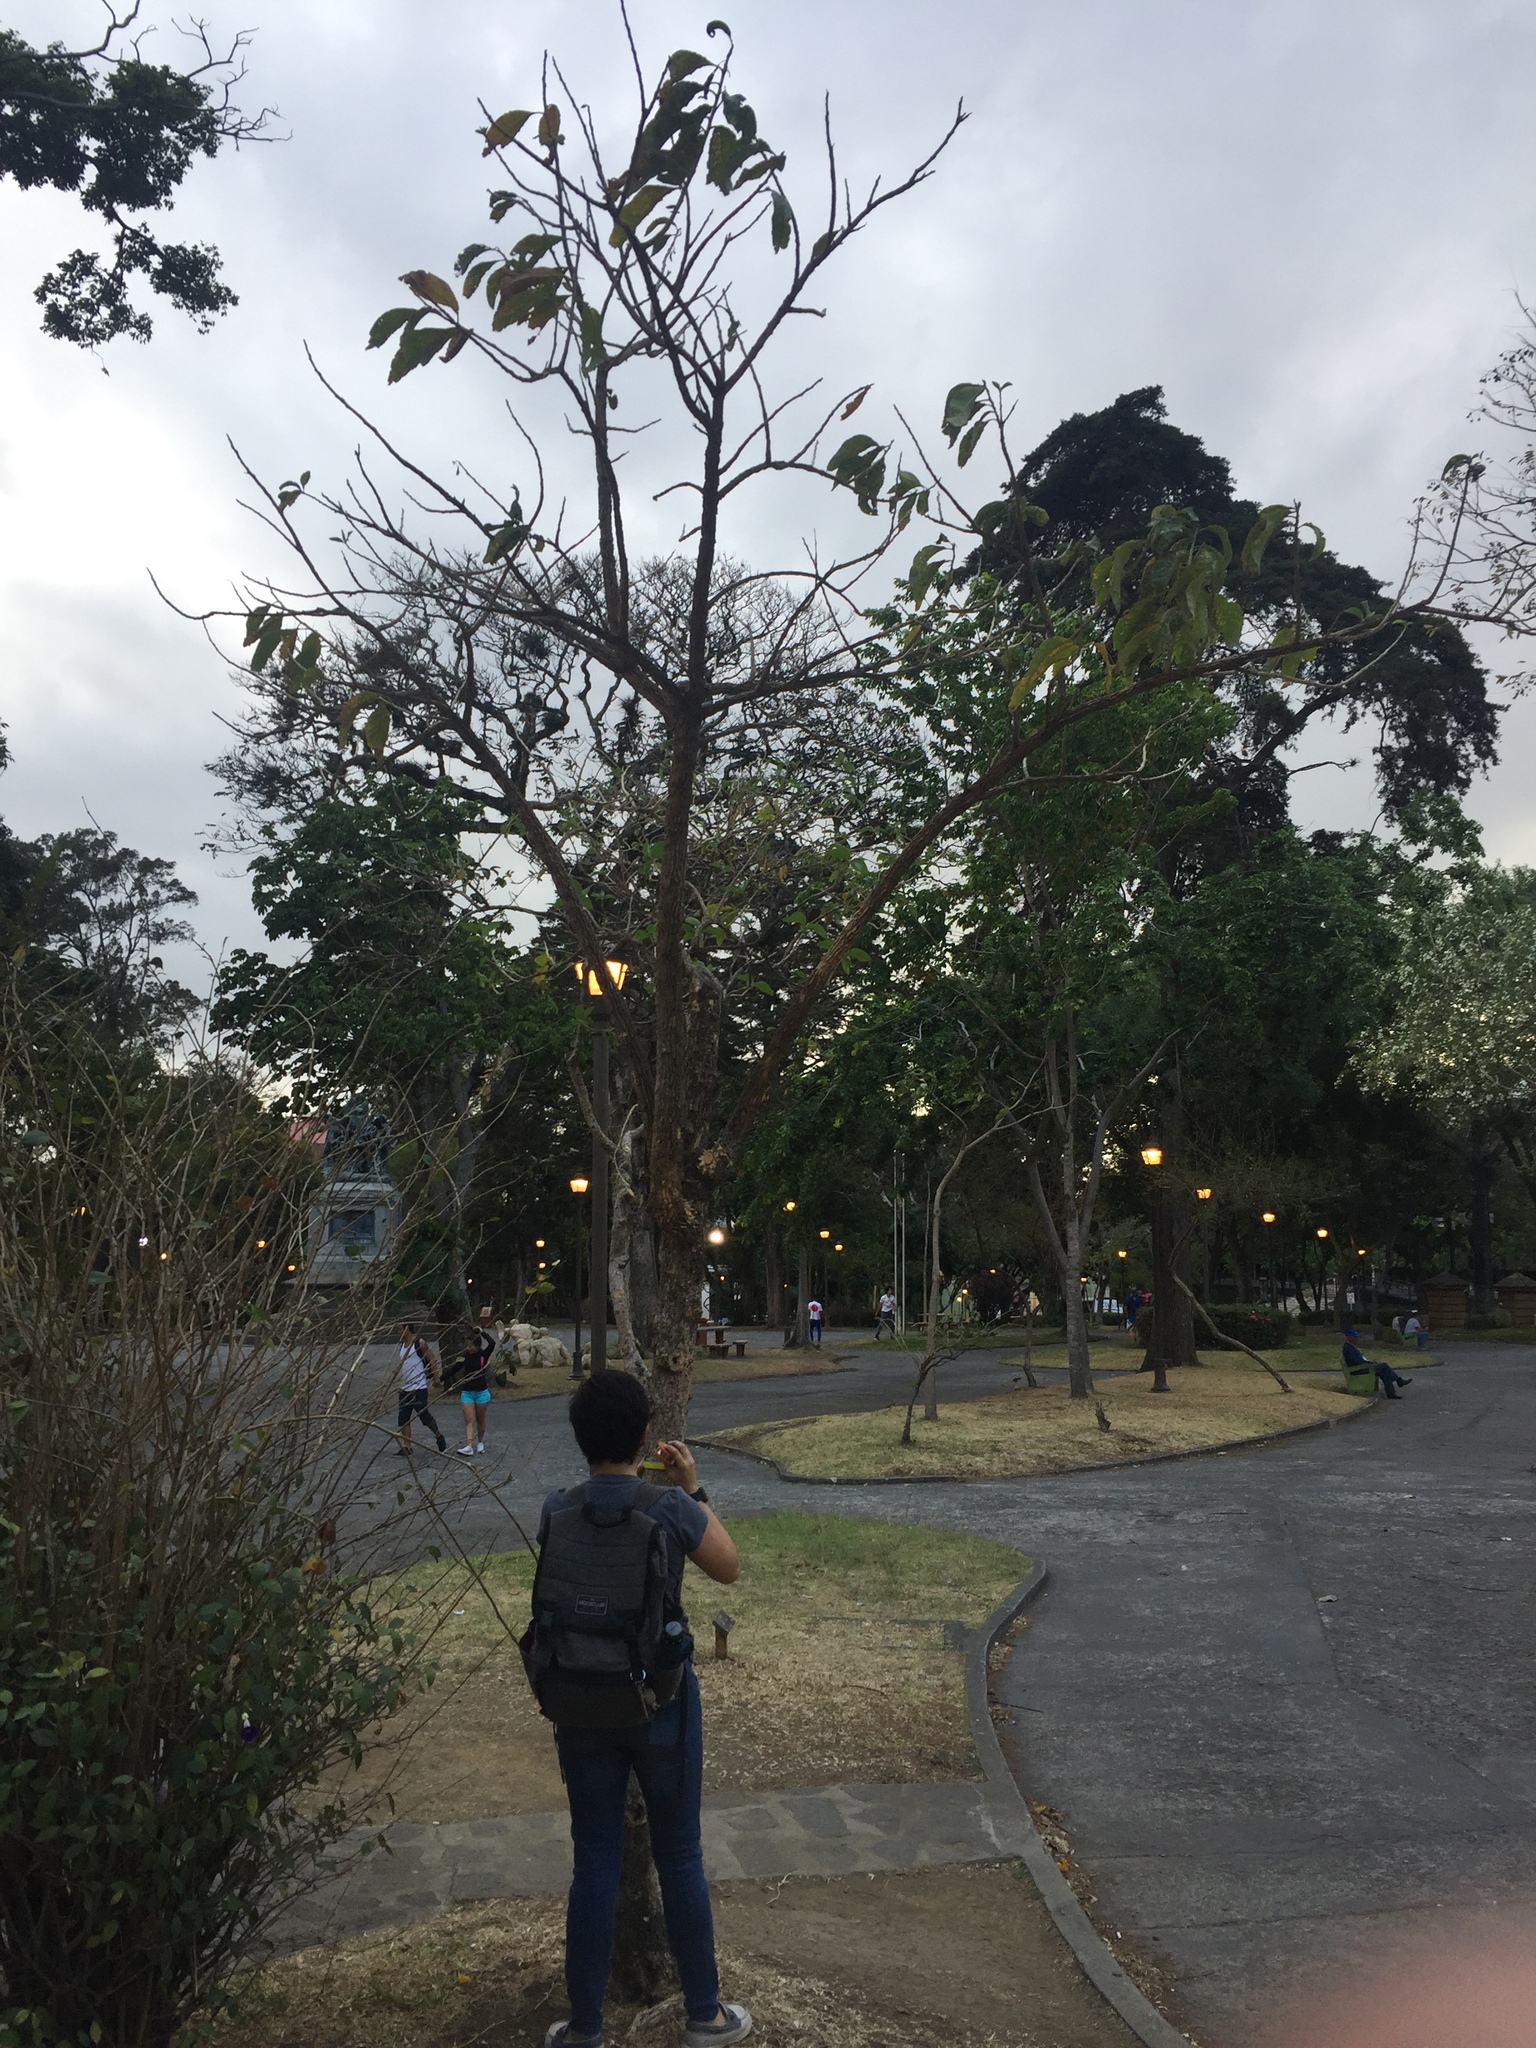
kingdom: Plantae
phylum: Tracheophyta
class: Magnoliopsida
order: Solanales
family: Solanaceae
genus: Iochroma
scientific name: Iochroma arborescens
